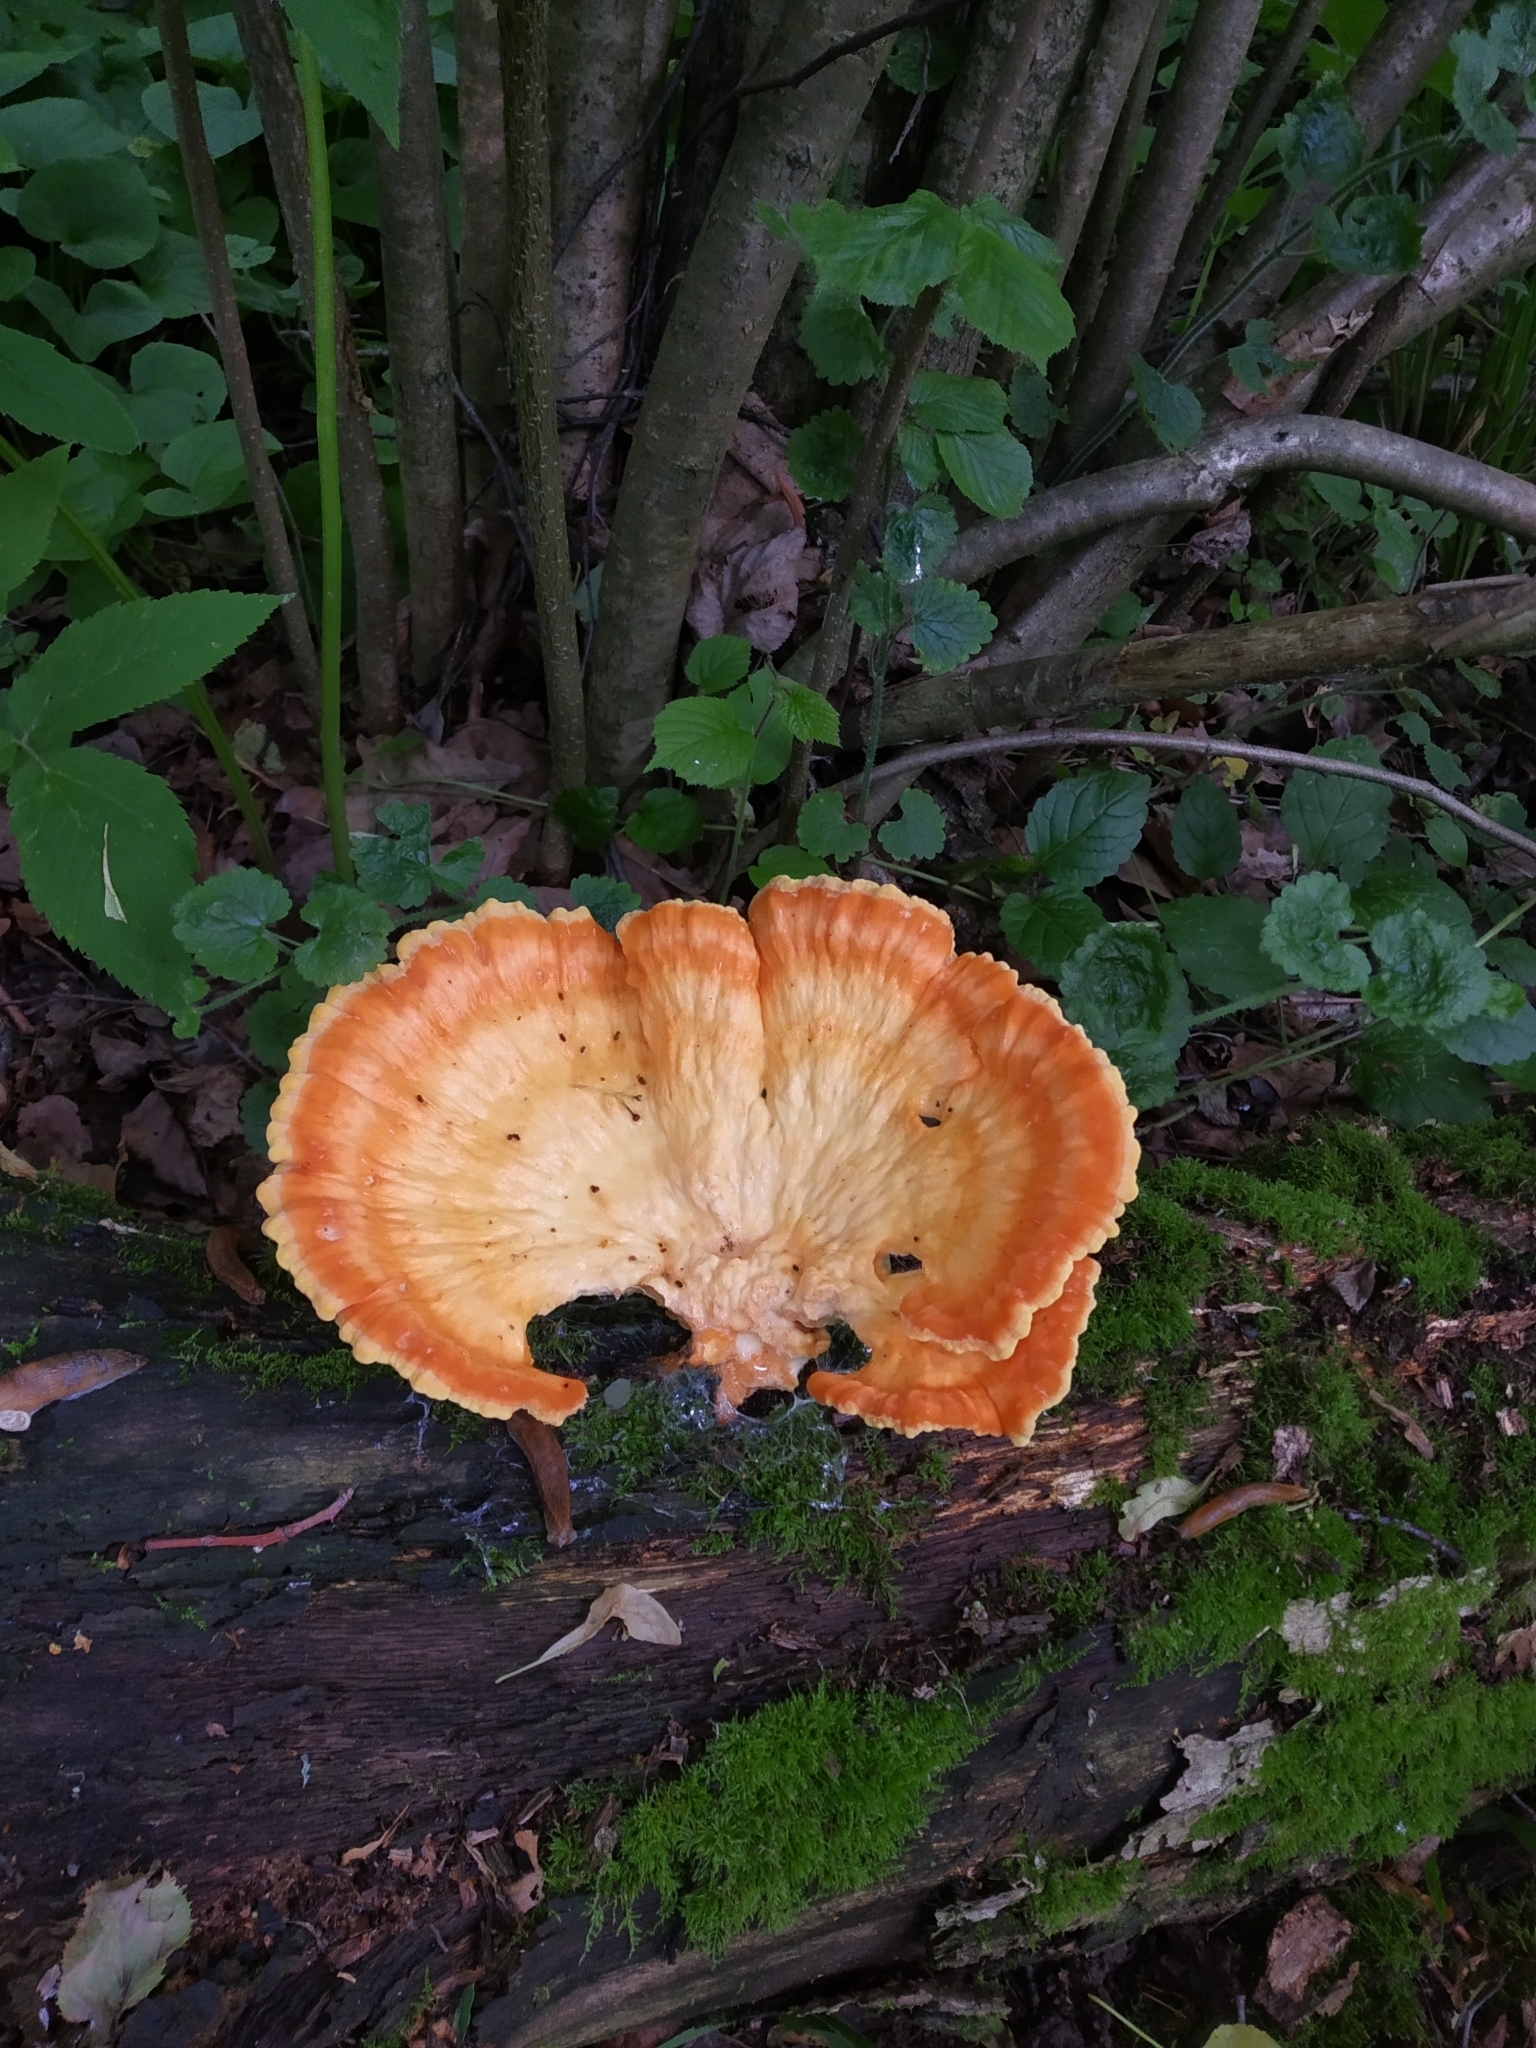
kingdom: Fungi
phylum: Basidiomycota
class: Agaricomycetes
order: Polyporales
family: Laetiporaceae
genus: Laetiporus
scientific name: Laetiporus sulphureus
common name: Chicken of the woods
